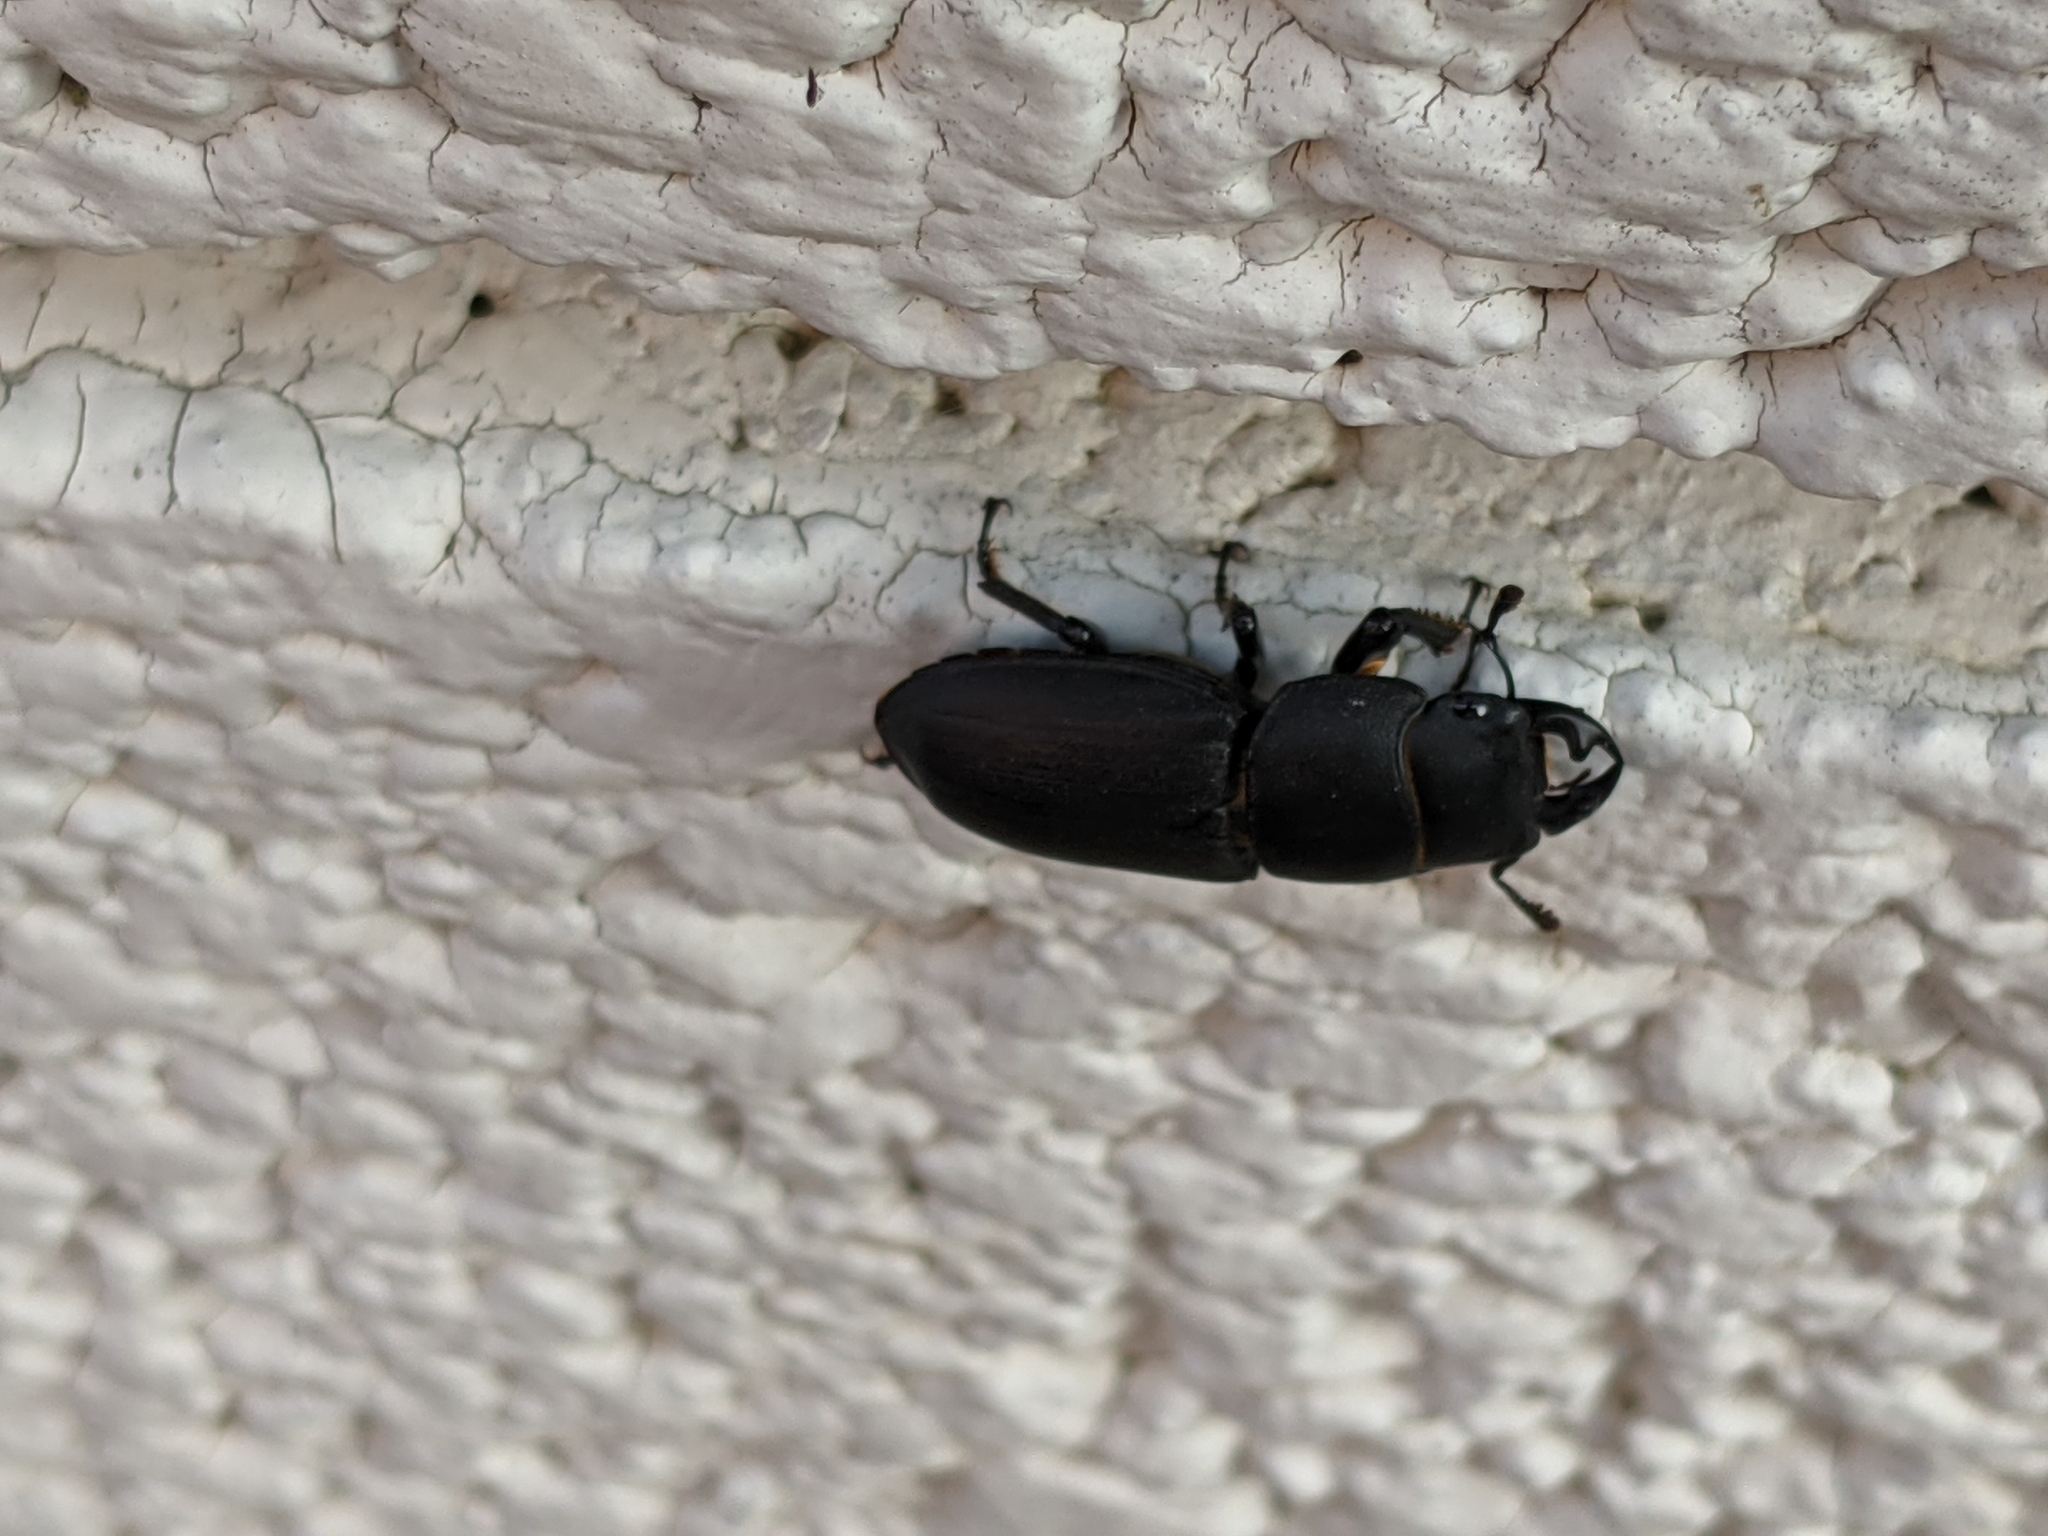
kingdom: Animalia
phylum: Arthropoda
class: Insecta
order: Coleoptera
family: Lucanidae
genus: Dorcus
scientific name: Dorcus parallelipipedus
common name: Lesser stag beetle
